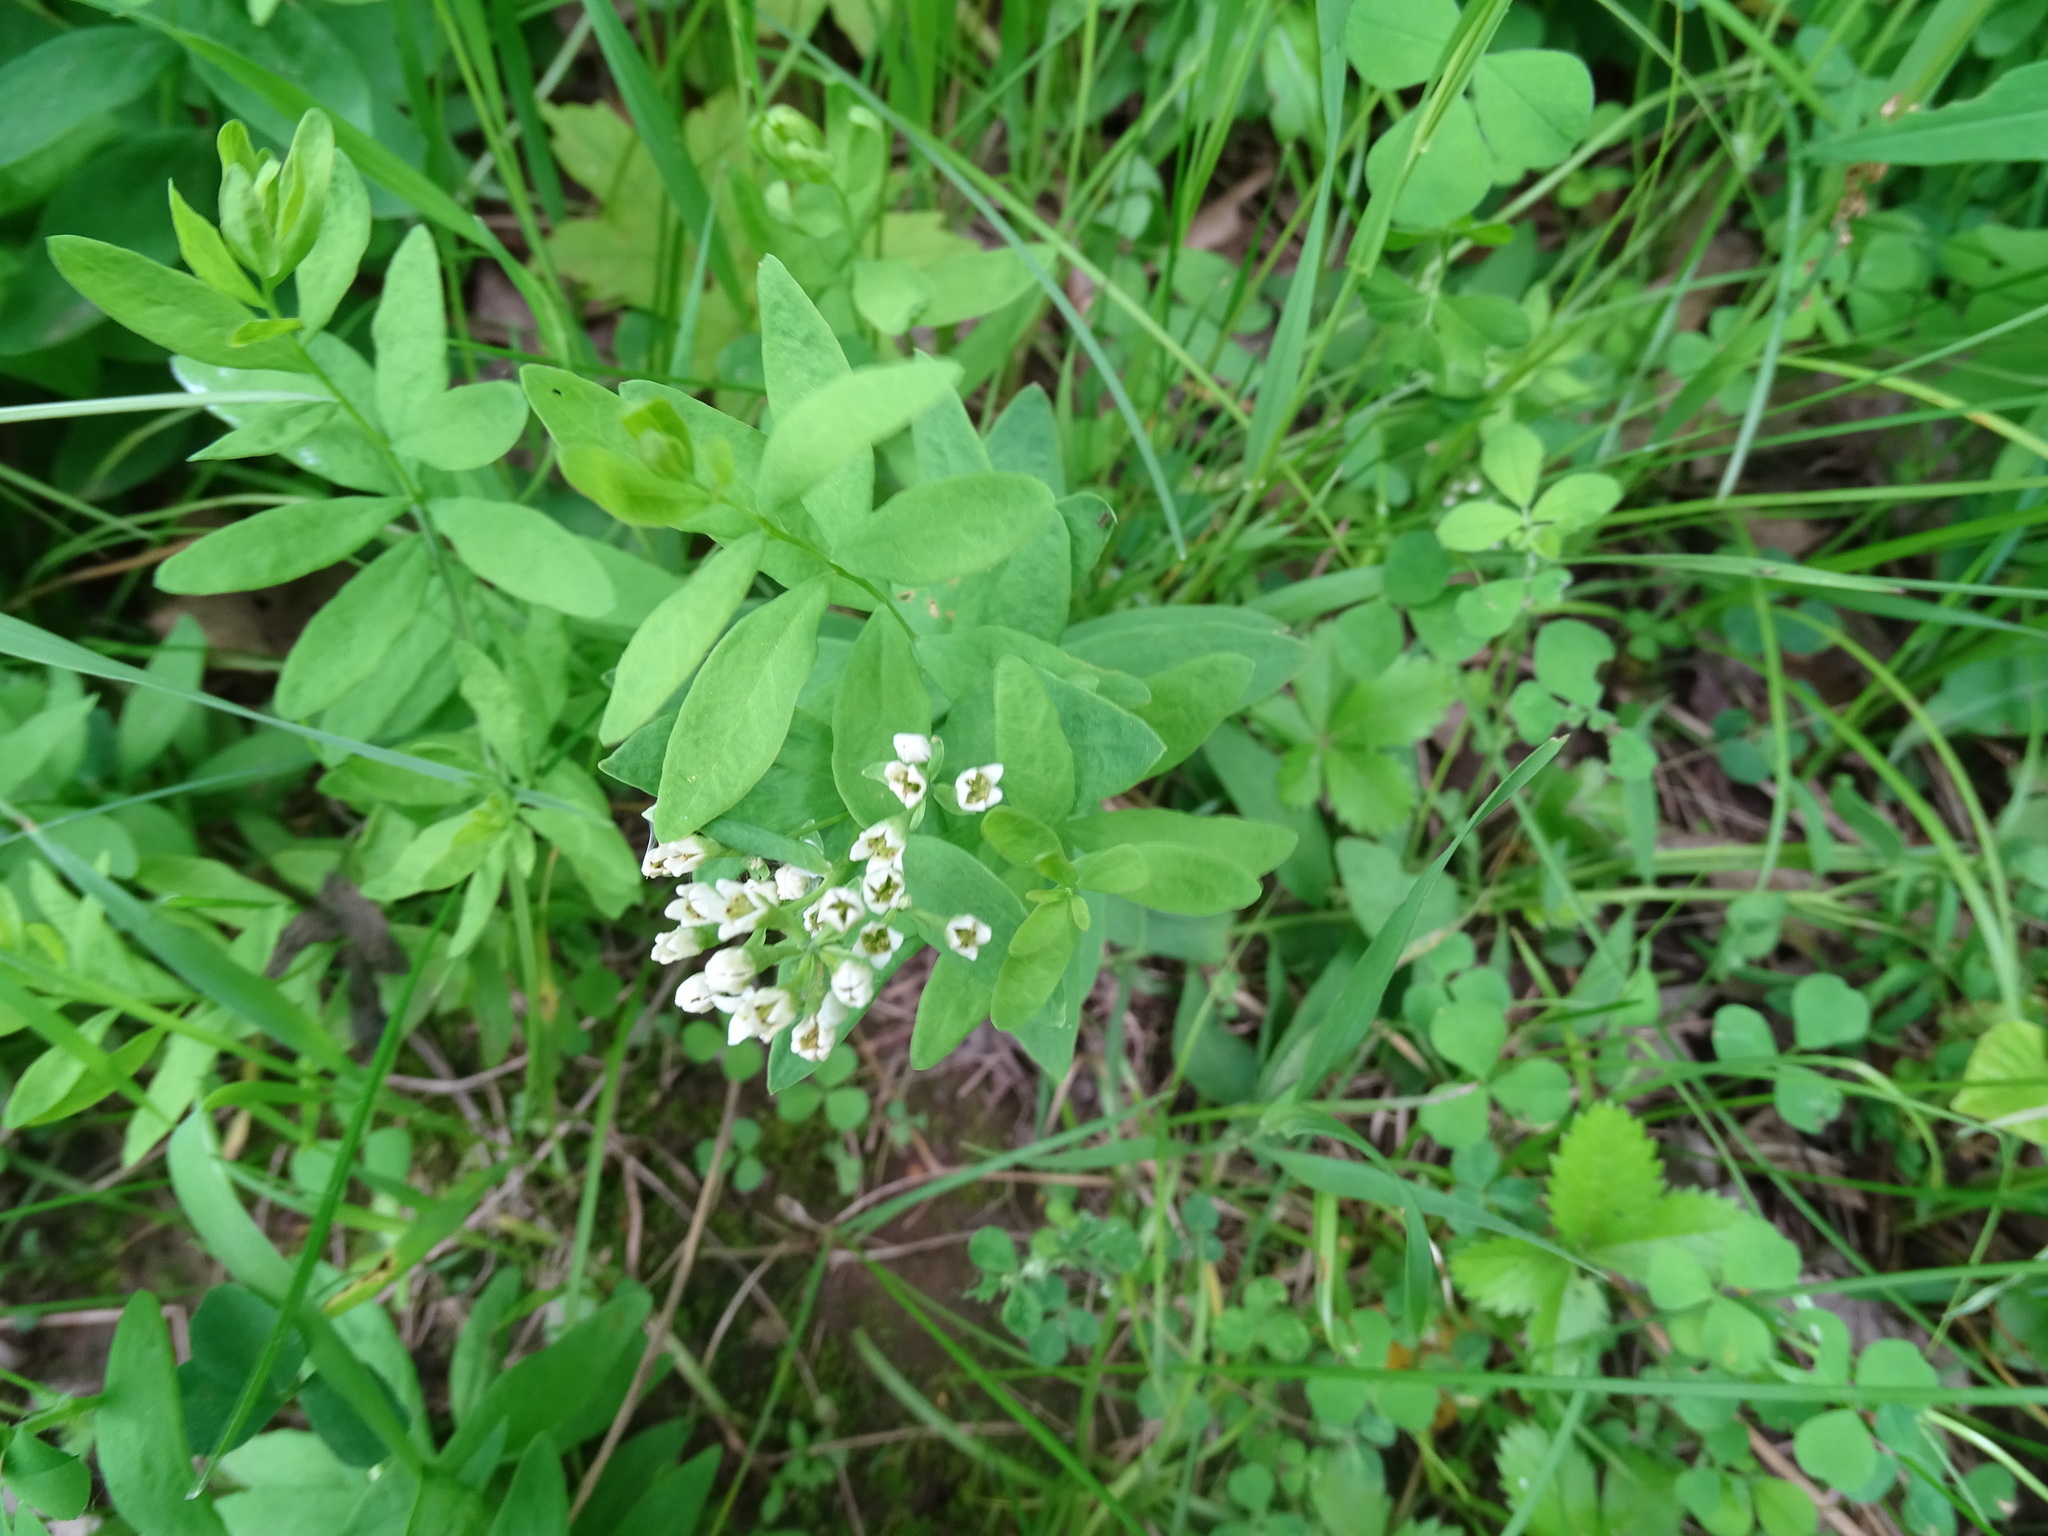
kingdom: Plantae
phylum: Tracheophyta
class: Magnoliopsida
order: Santalales
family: Comandraceae
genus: Comandra
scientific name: Comandra umbellata
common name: Bastard toadflax
